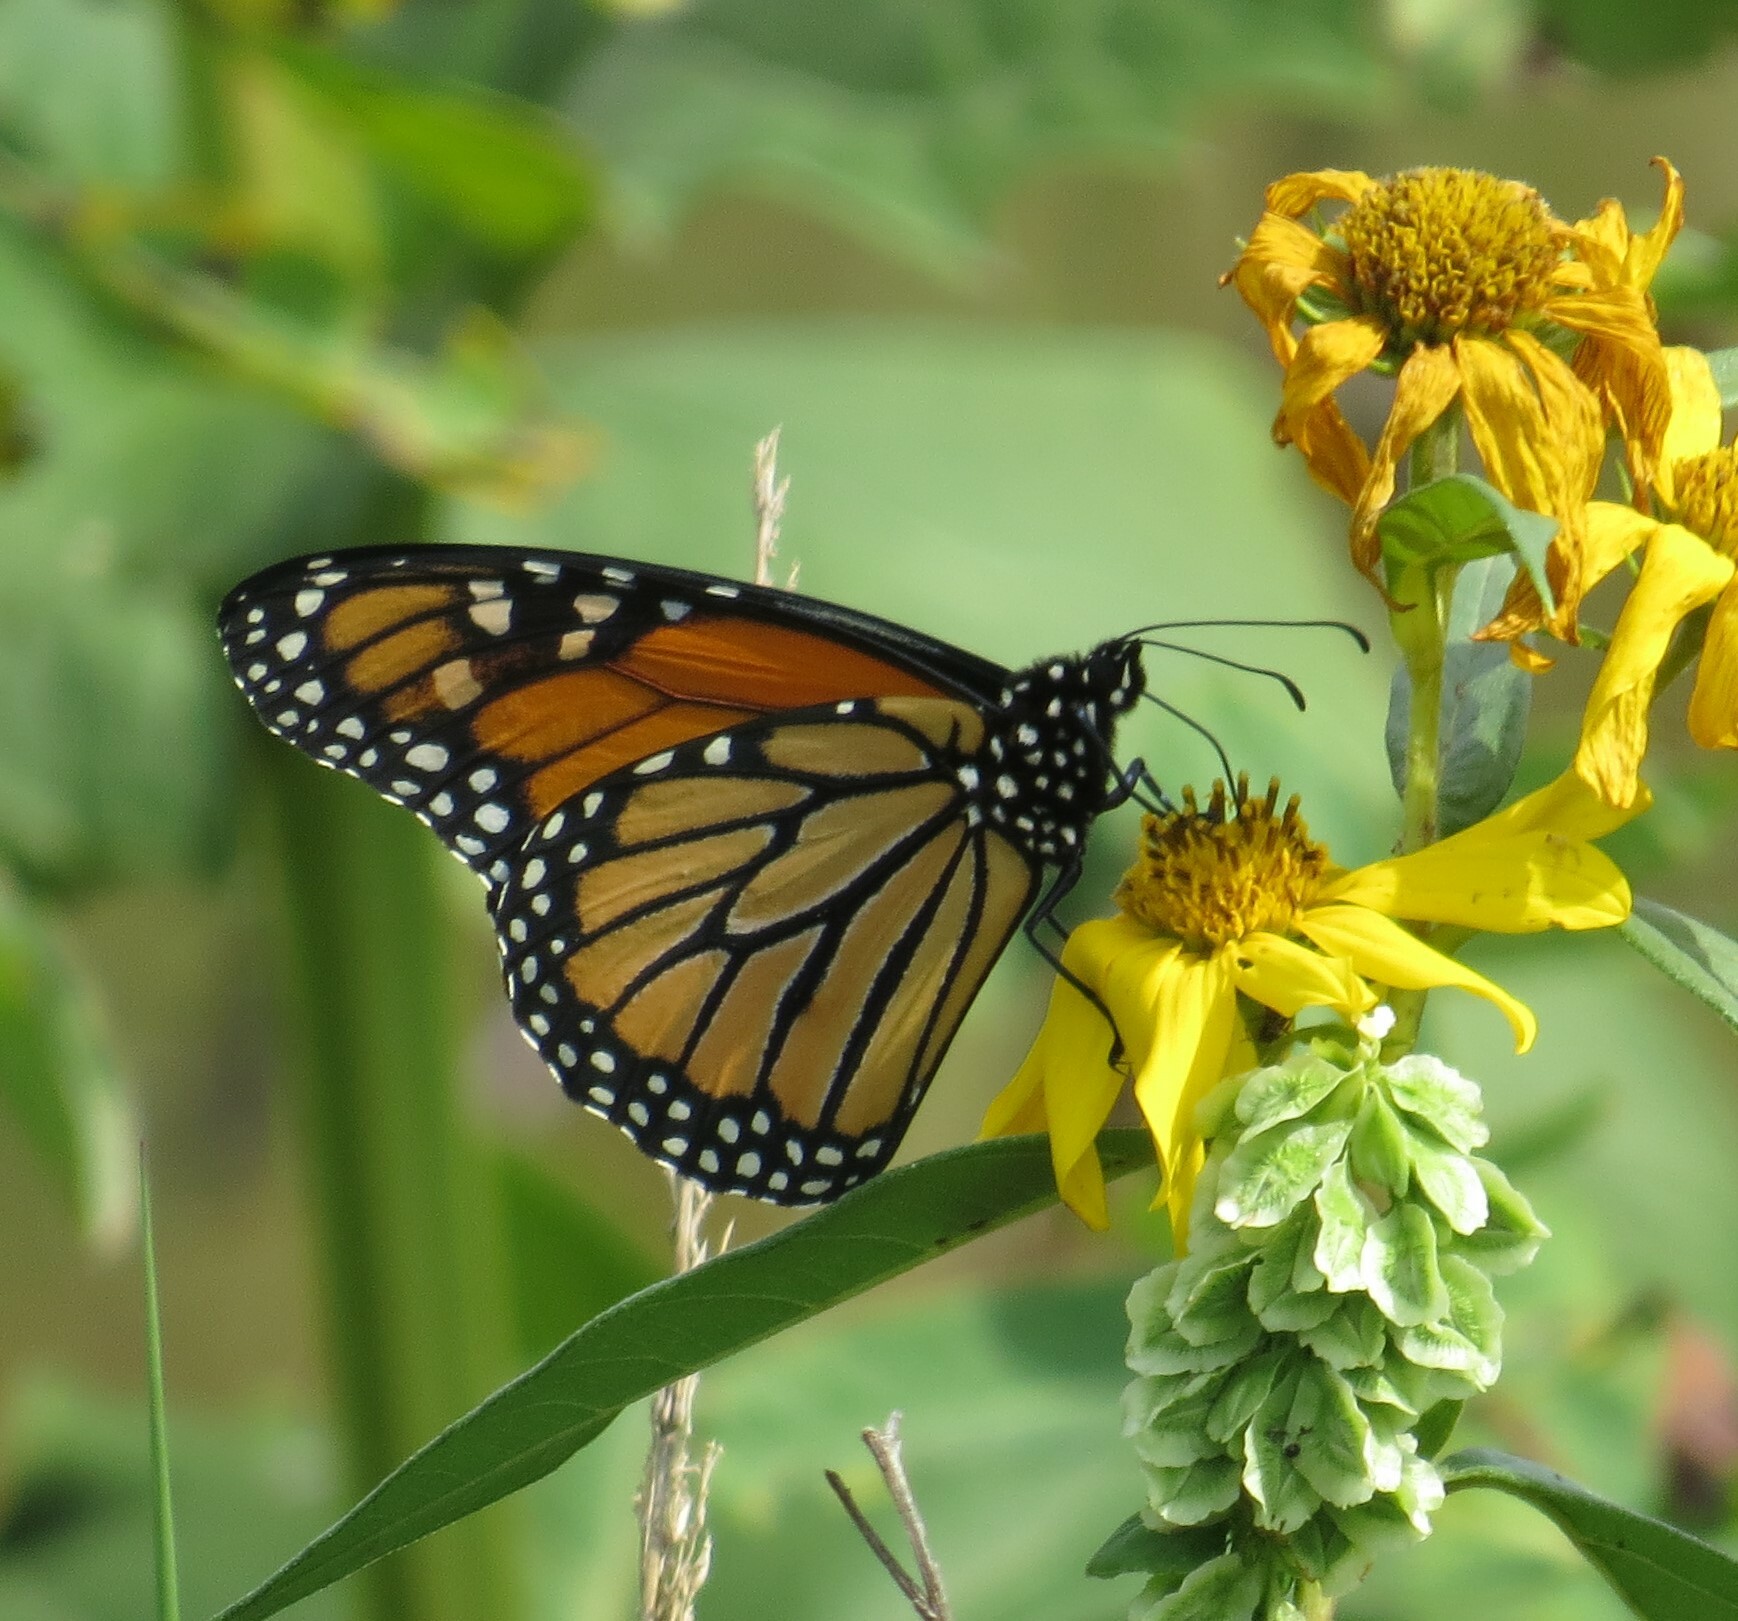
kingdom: Animalia
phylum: Arthropoda
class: Insecta
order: Lepidoptera
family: Nymphalidae
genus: Danaus
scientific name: Danaus plexippus
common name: Monarch
